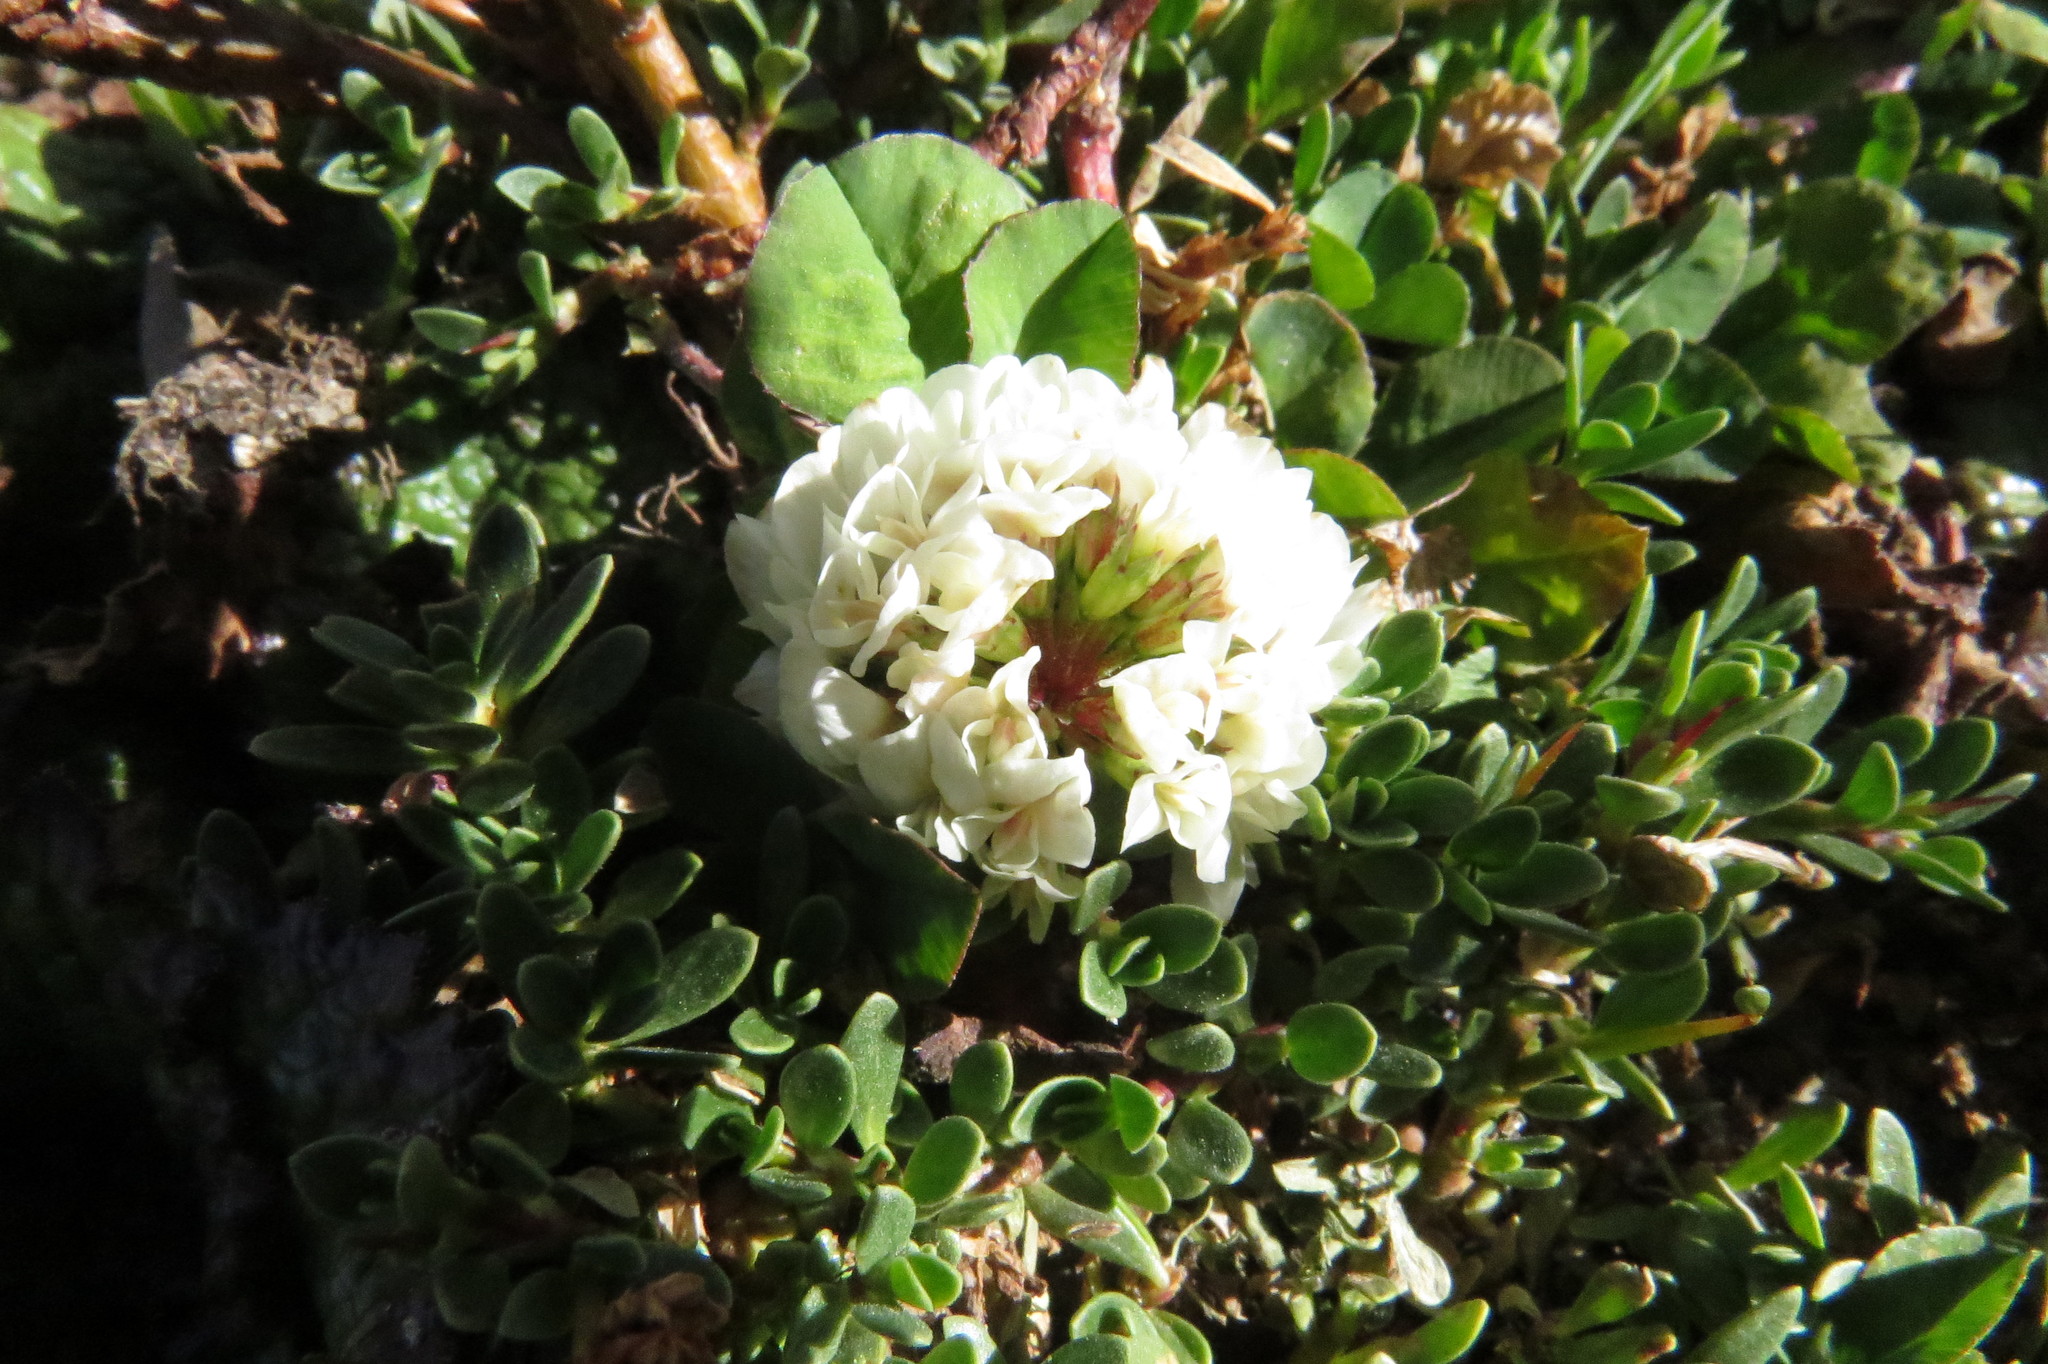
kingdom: Plantae
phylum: Tracheophyta
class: Magnoliopsida
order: Fabales
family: Fabaceae
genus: Trifolium
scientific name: Trifolium repens
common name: White clover
